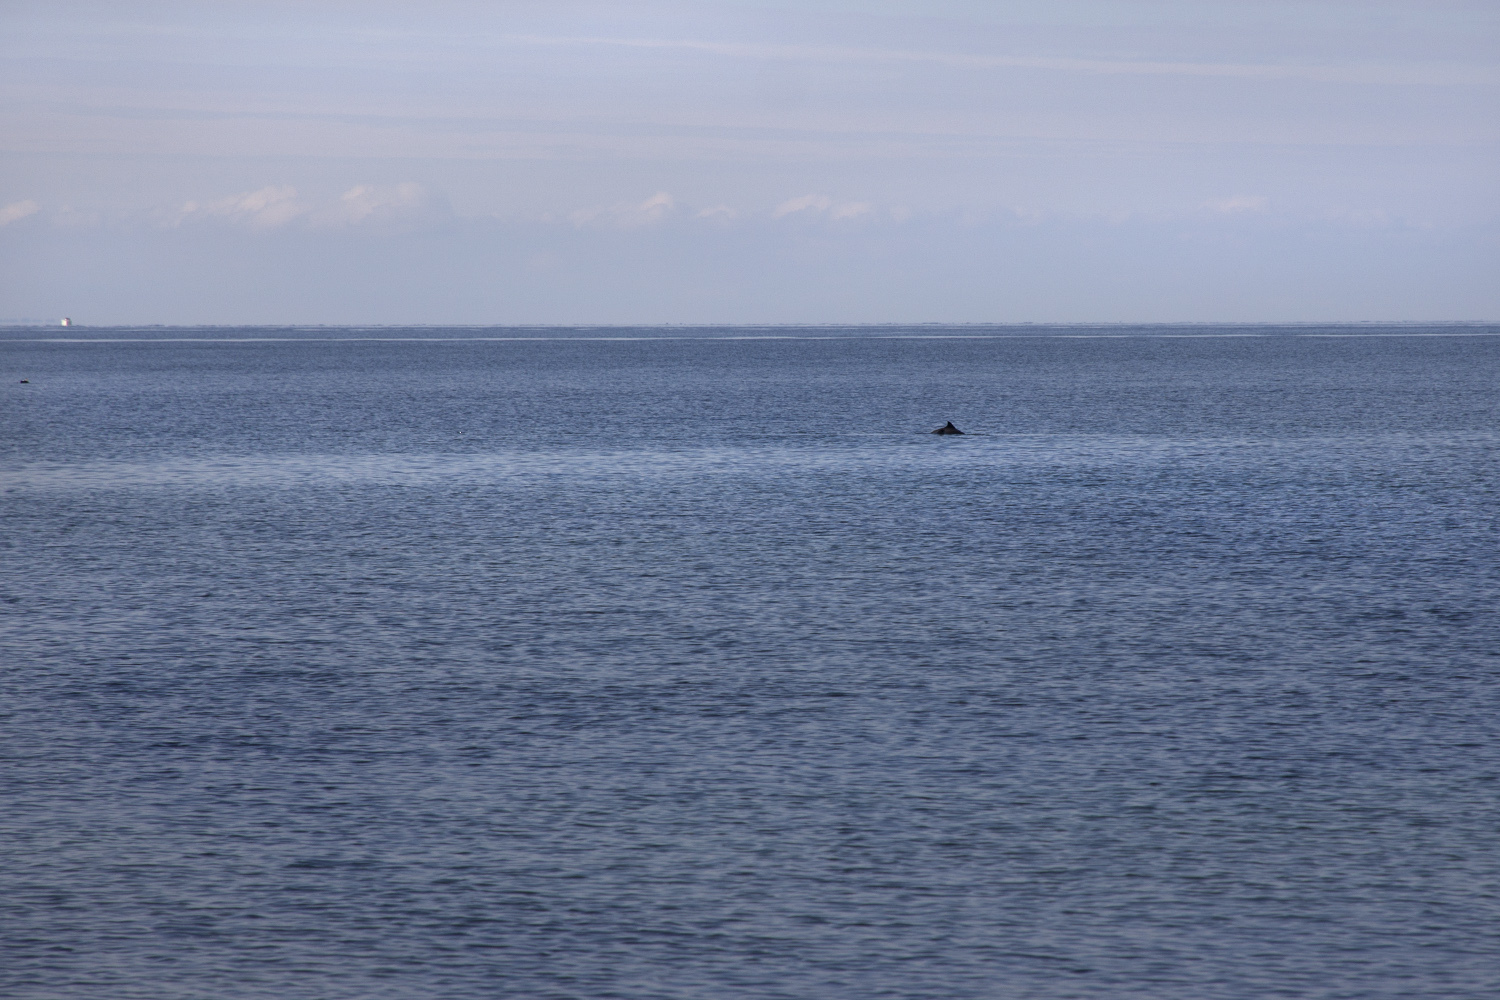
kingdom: Animalia
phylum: Chordata
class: Mammalia
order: Cetacea
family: Phocoenidae
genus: Phocoena
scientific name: Phocoena phocoena
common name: Harbor porpoise
